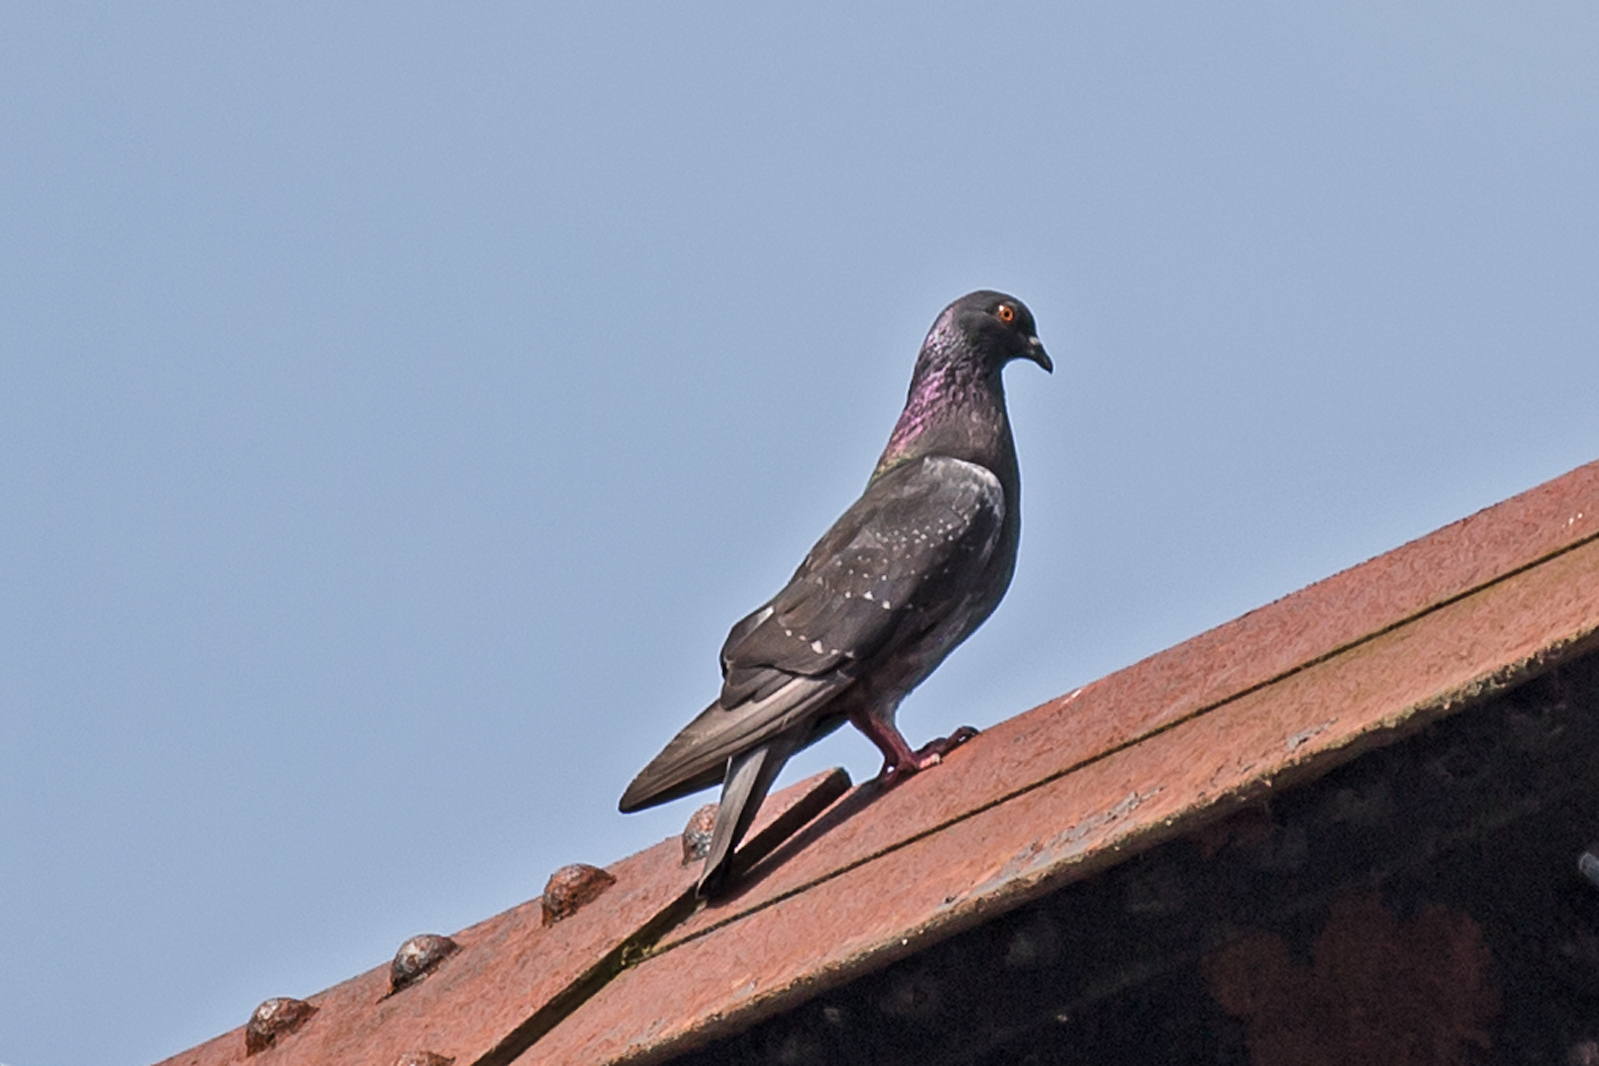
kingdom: Animalia
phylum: Chordata
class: Aves
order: Columbiformes
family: Columbidae
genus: Columba
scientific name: Columba livia
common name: Rock pigeon
